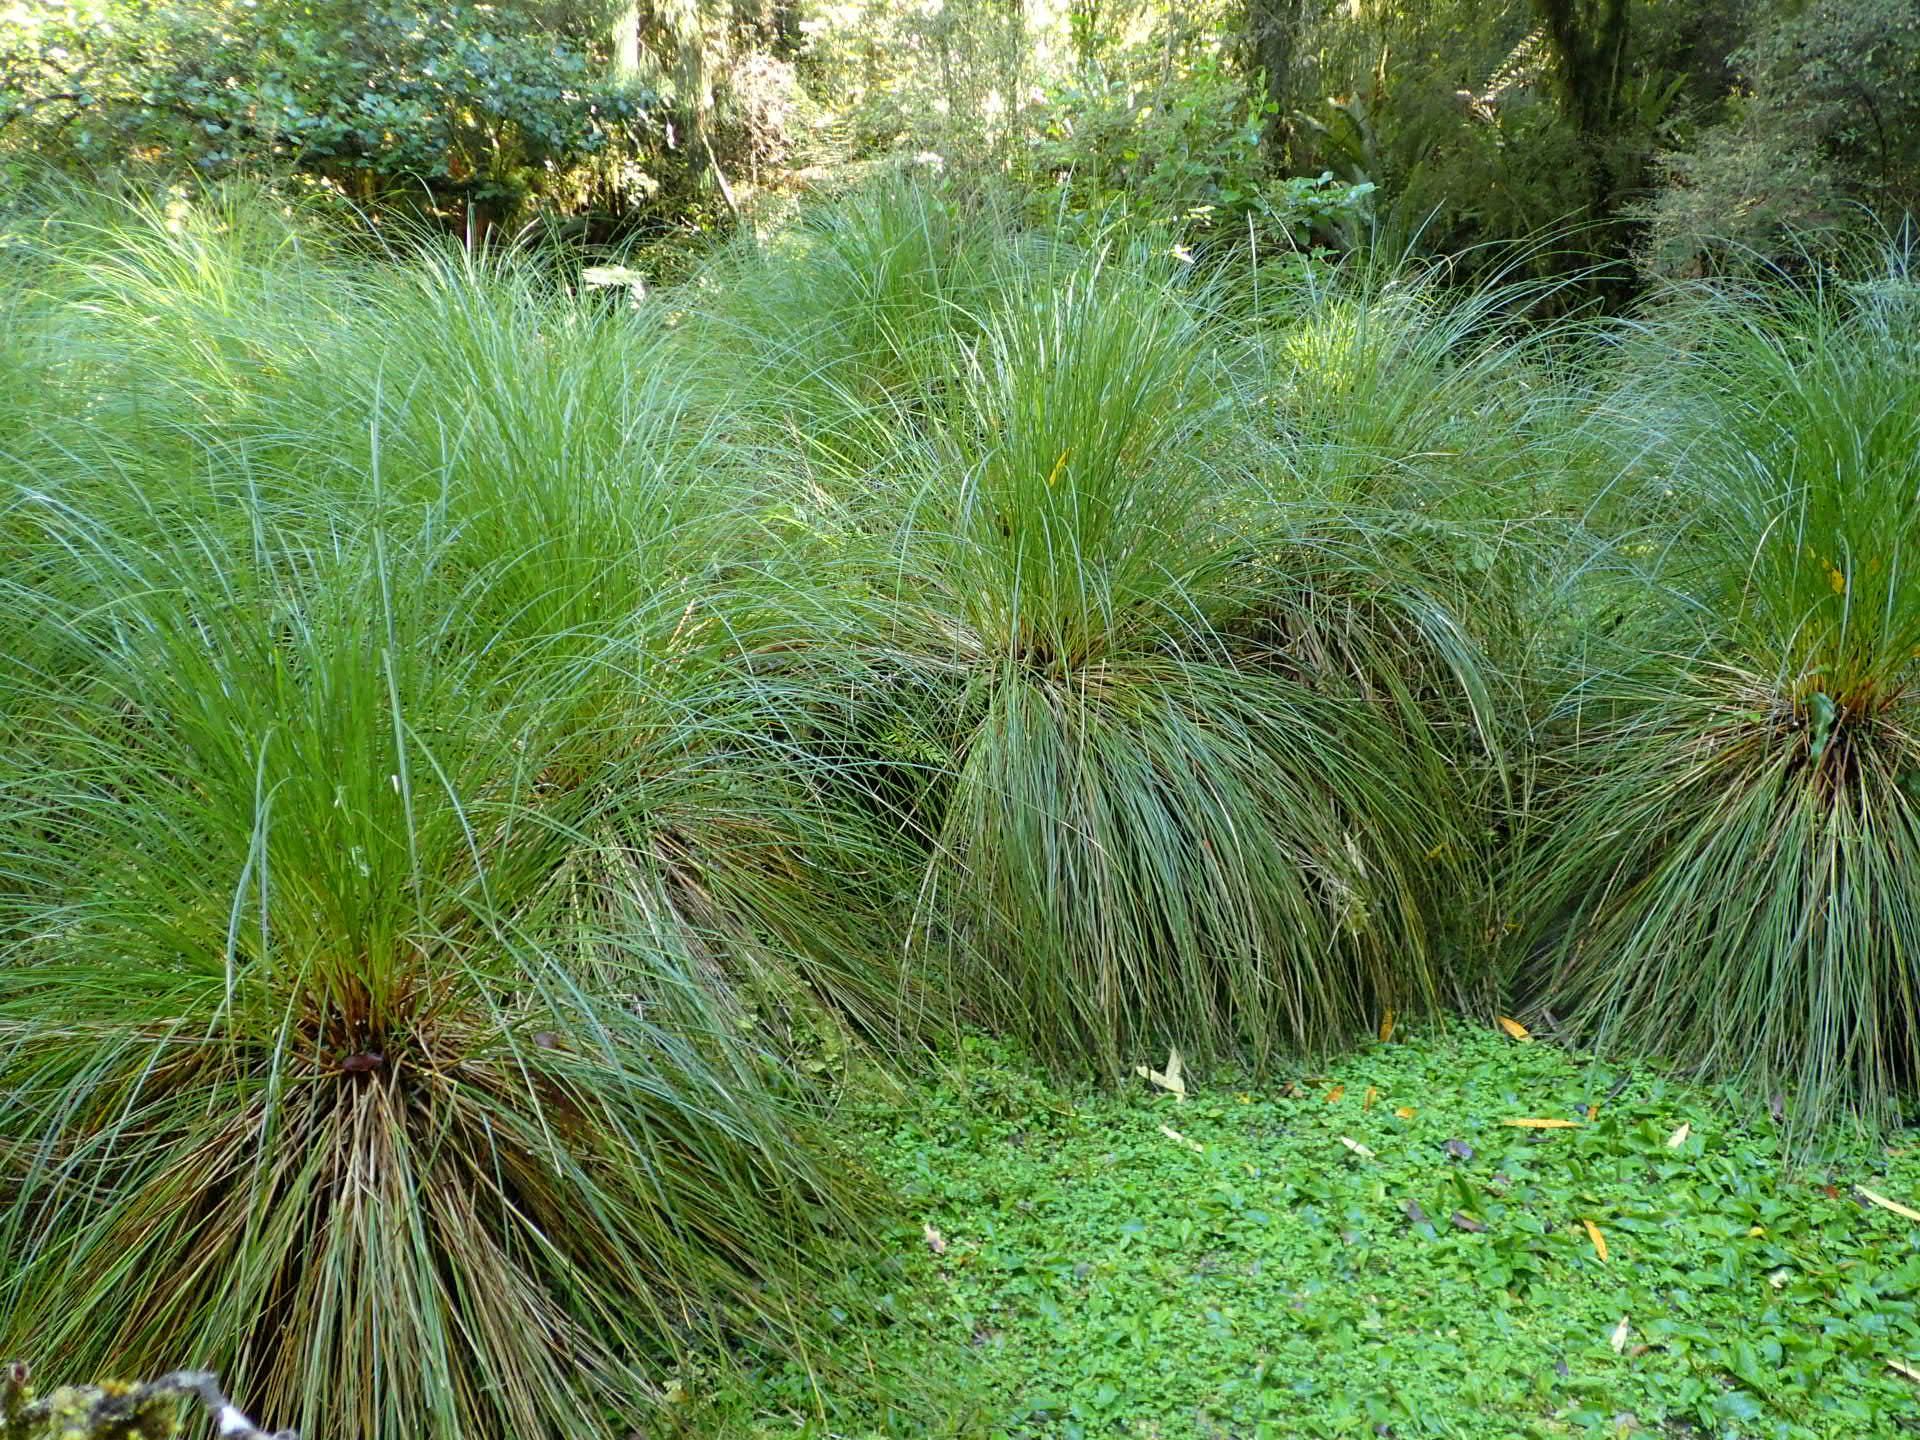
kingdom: Plantae
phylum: Tracheophyta
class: Liliopsida
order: Poales
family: Cyperaceae
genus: Carex
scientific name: Carex secta
